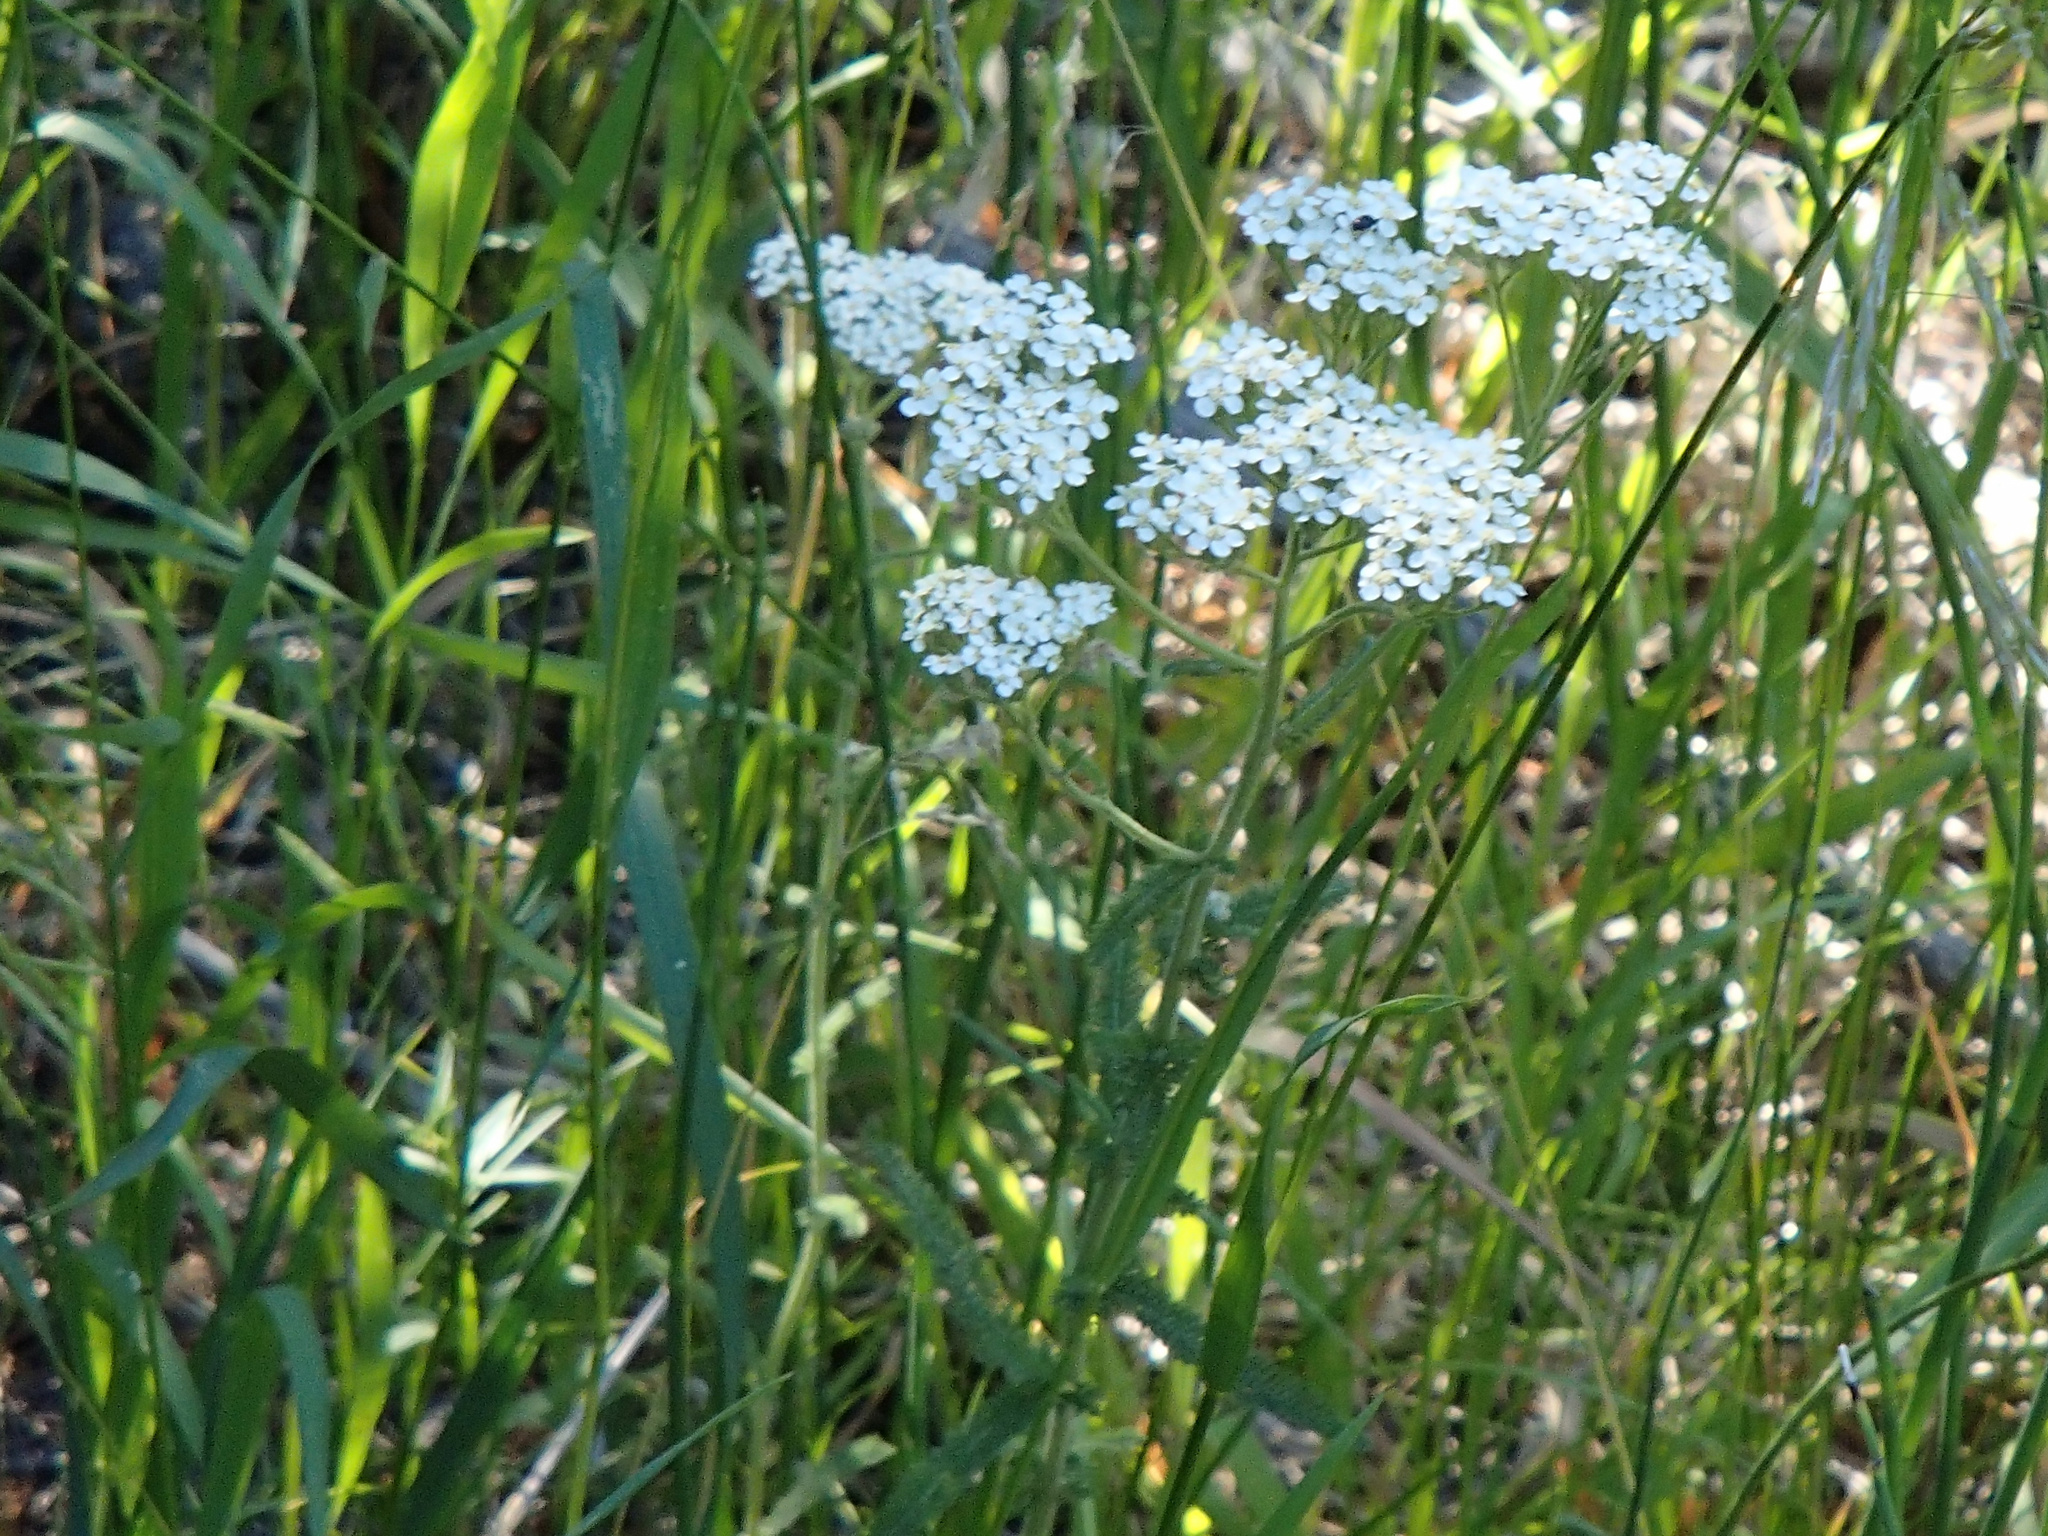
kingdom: Plantae
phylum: Tracheophyta
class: Magnoliopsida
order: Asterales
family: Asteraceae
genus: Achillea
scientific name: Achillea millefolium
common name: Yarrow
